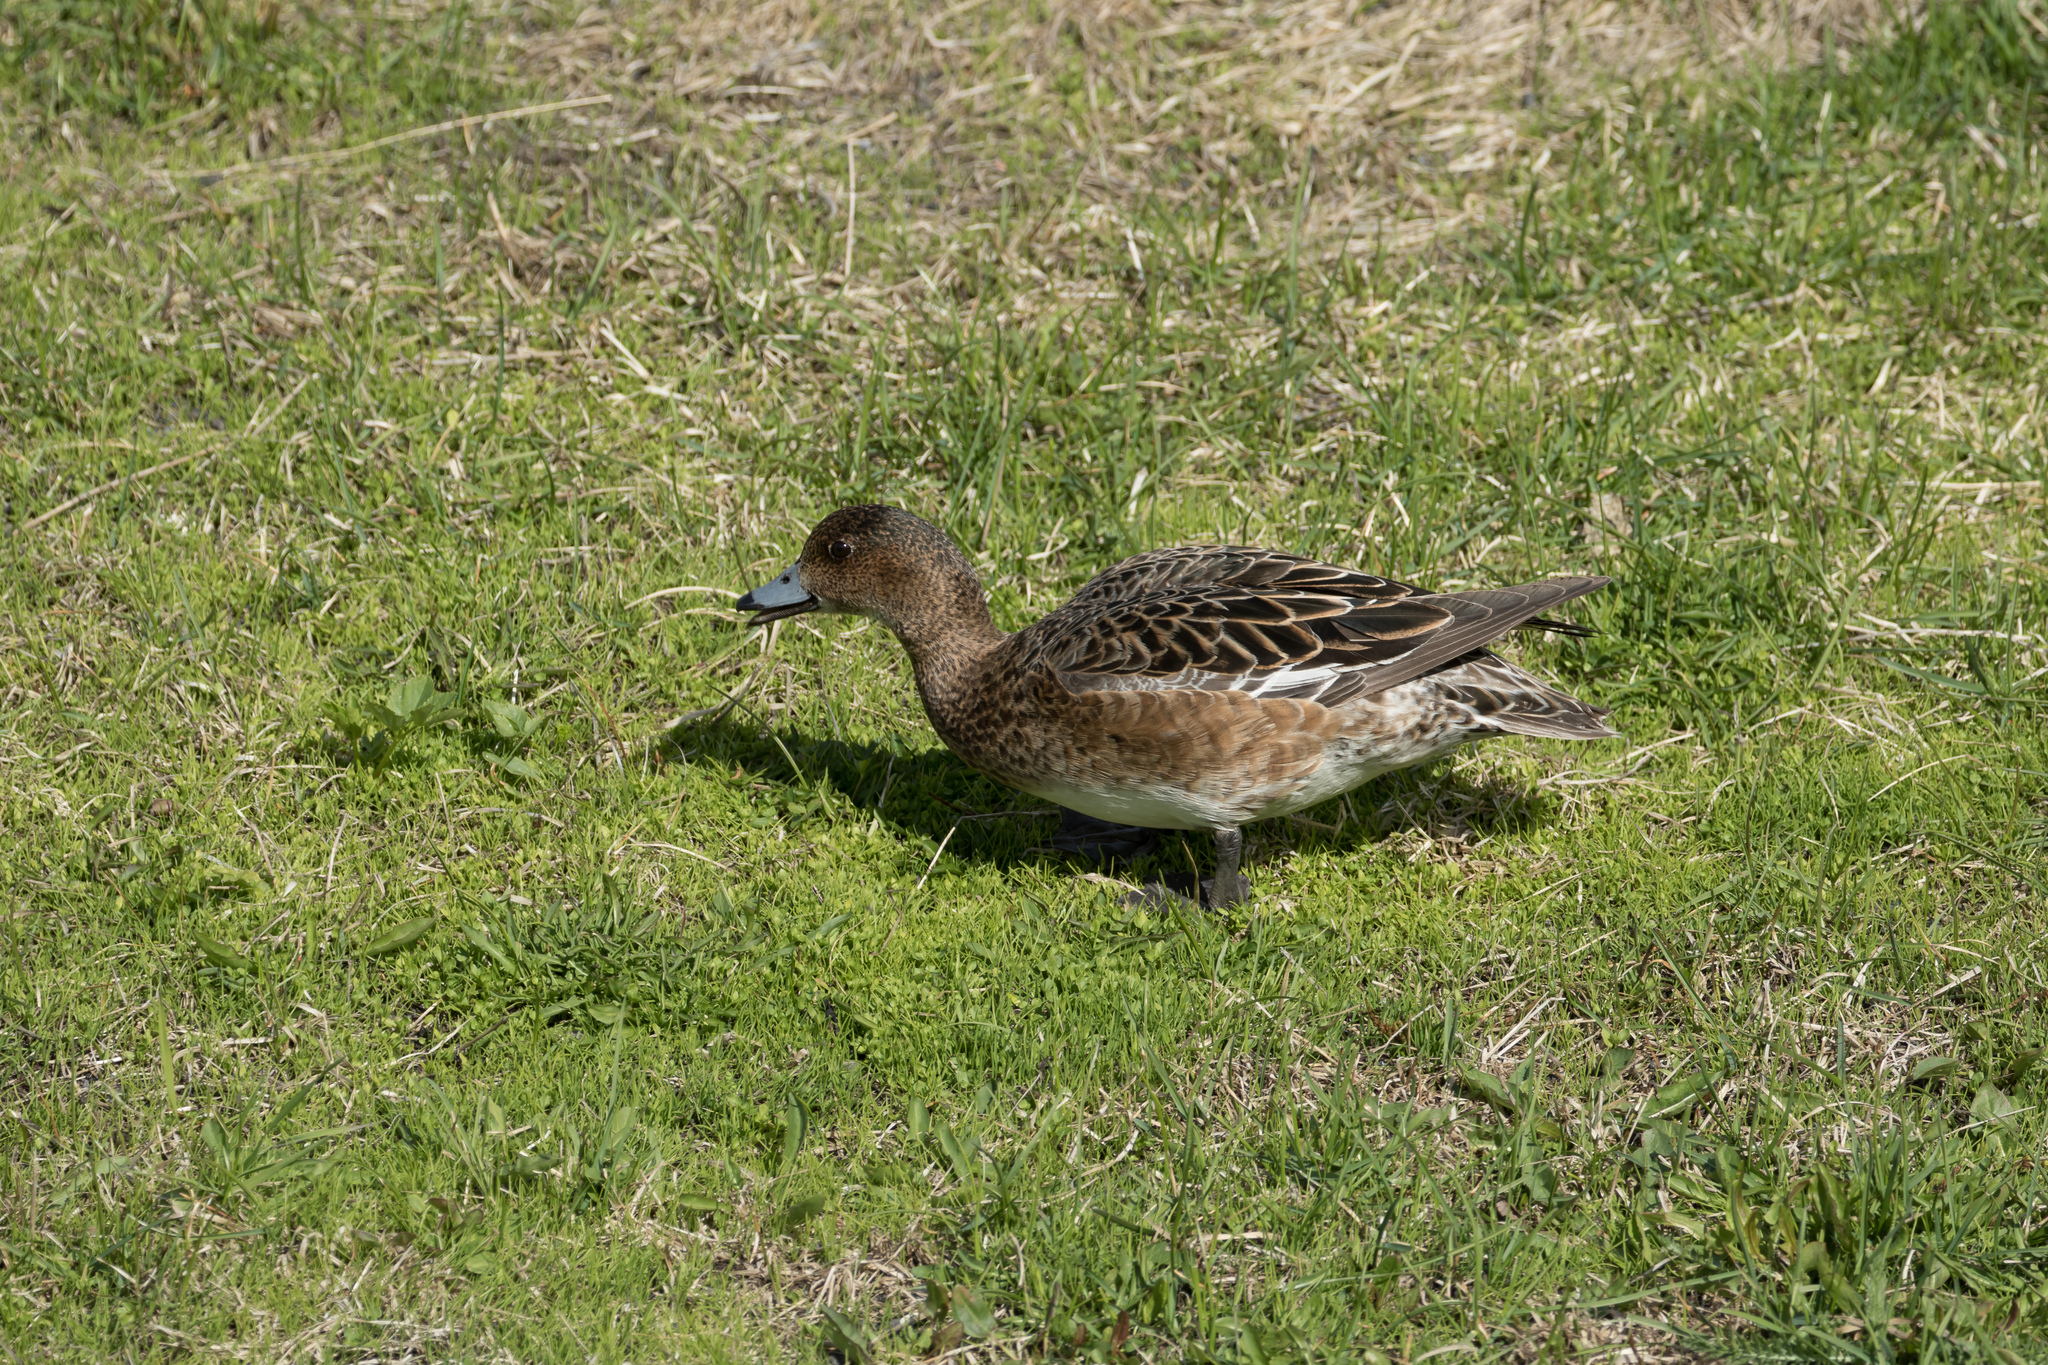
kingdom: Animalia
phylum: Chordata
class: Aves
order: Anseriformes
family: Anatidae
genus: Mareca
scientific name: Mareca penelope
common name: Eurasian wigeon
